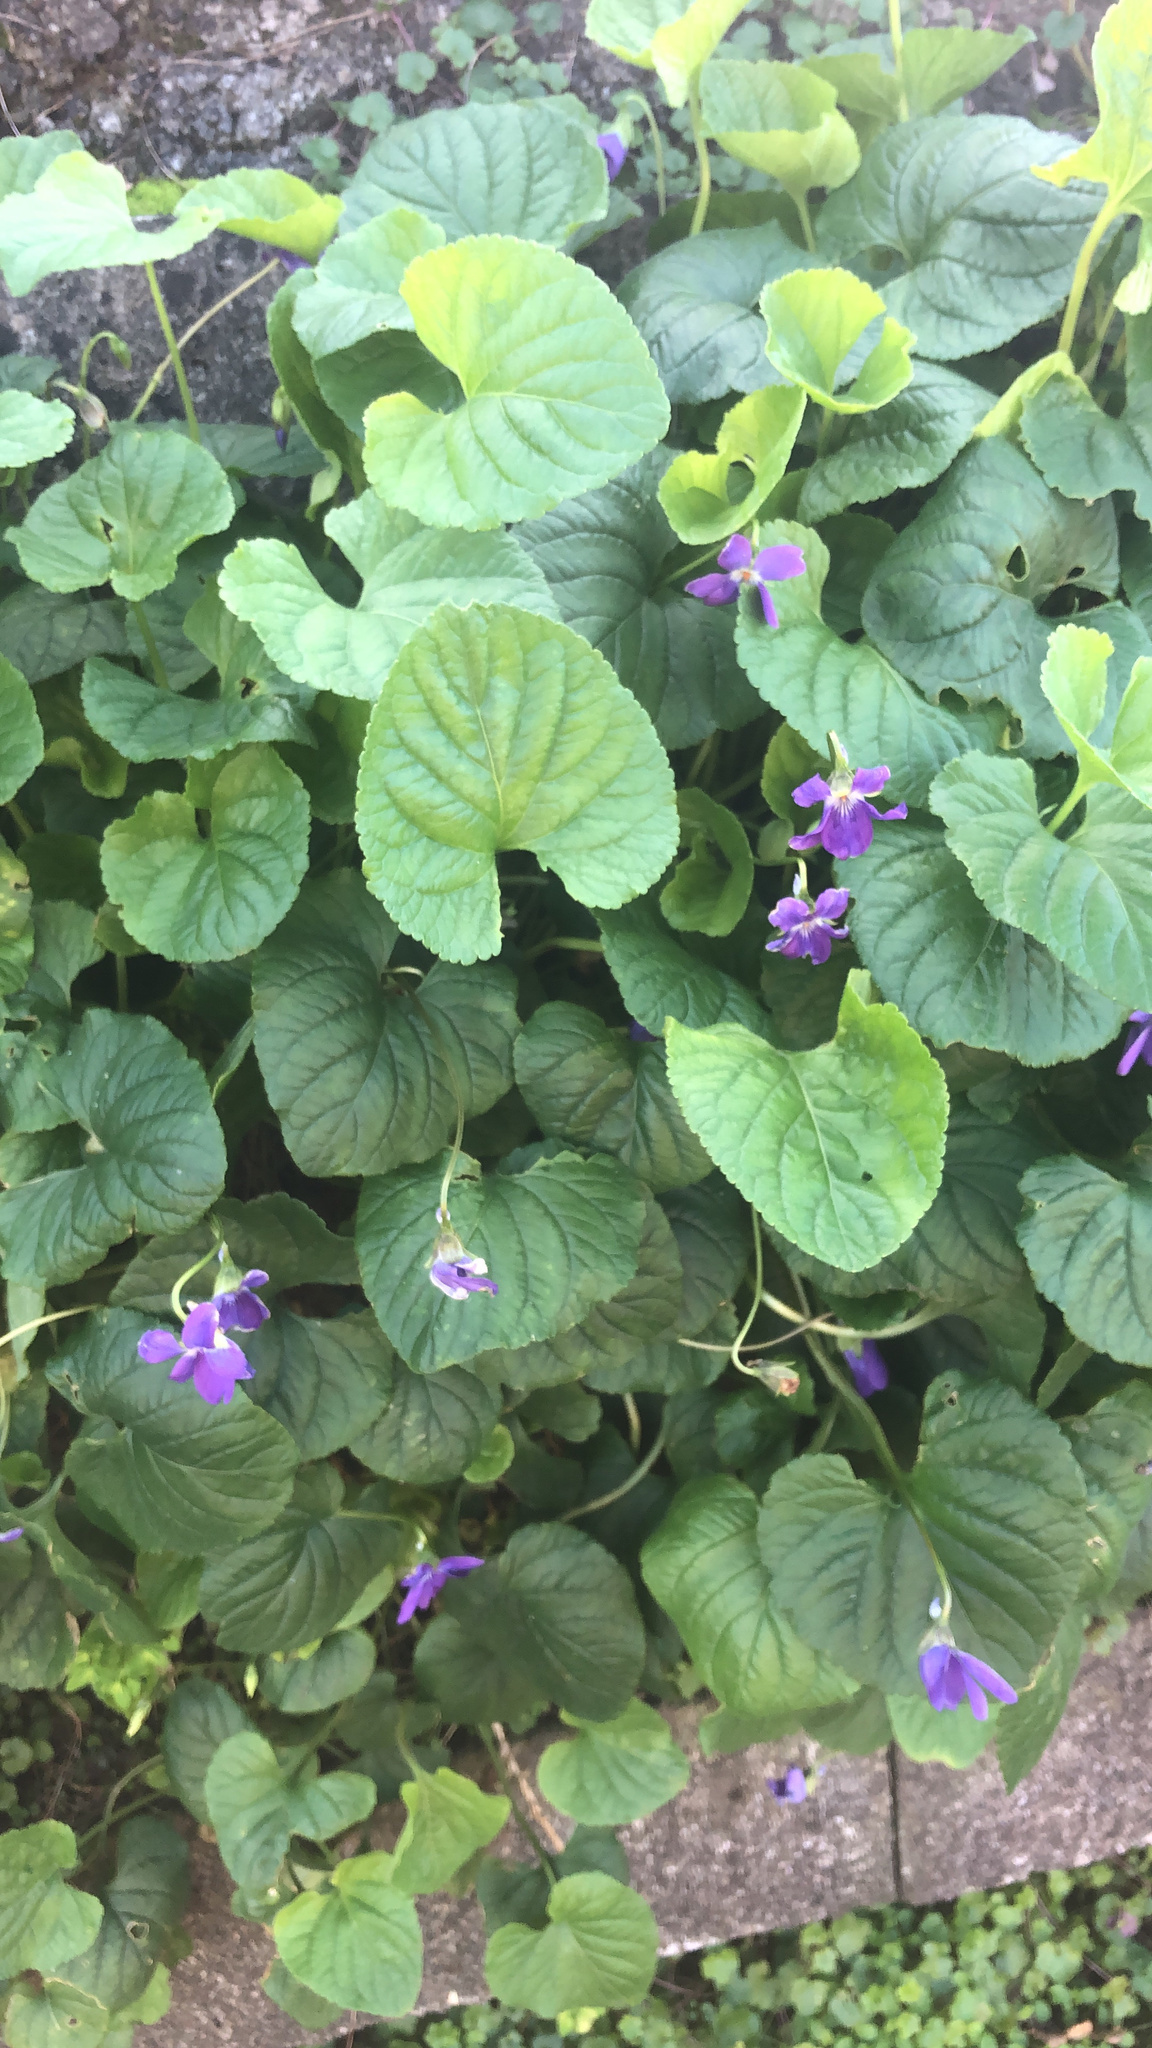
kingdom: Plantae
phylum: Tracheophyta
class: Magnoliopsida
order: Malpighiales
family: Violaceae
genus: Viola
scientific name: Viola odorata
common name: Sweet violet
